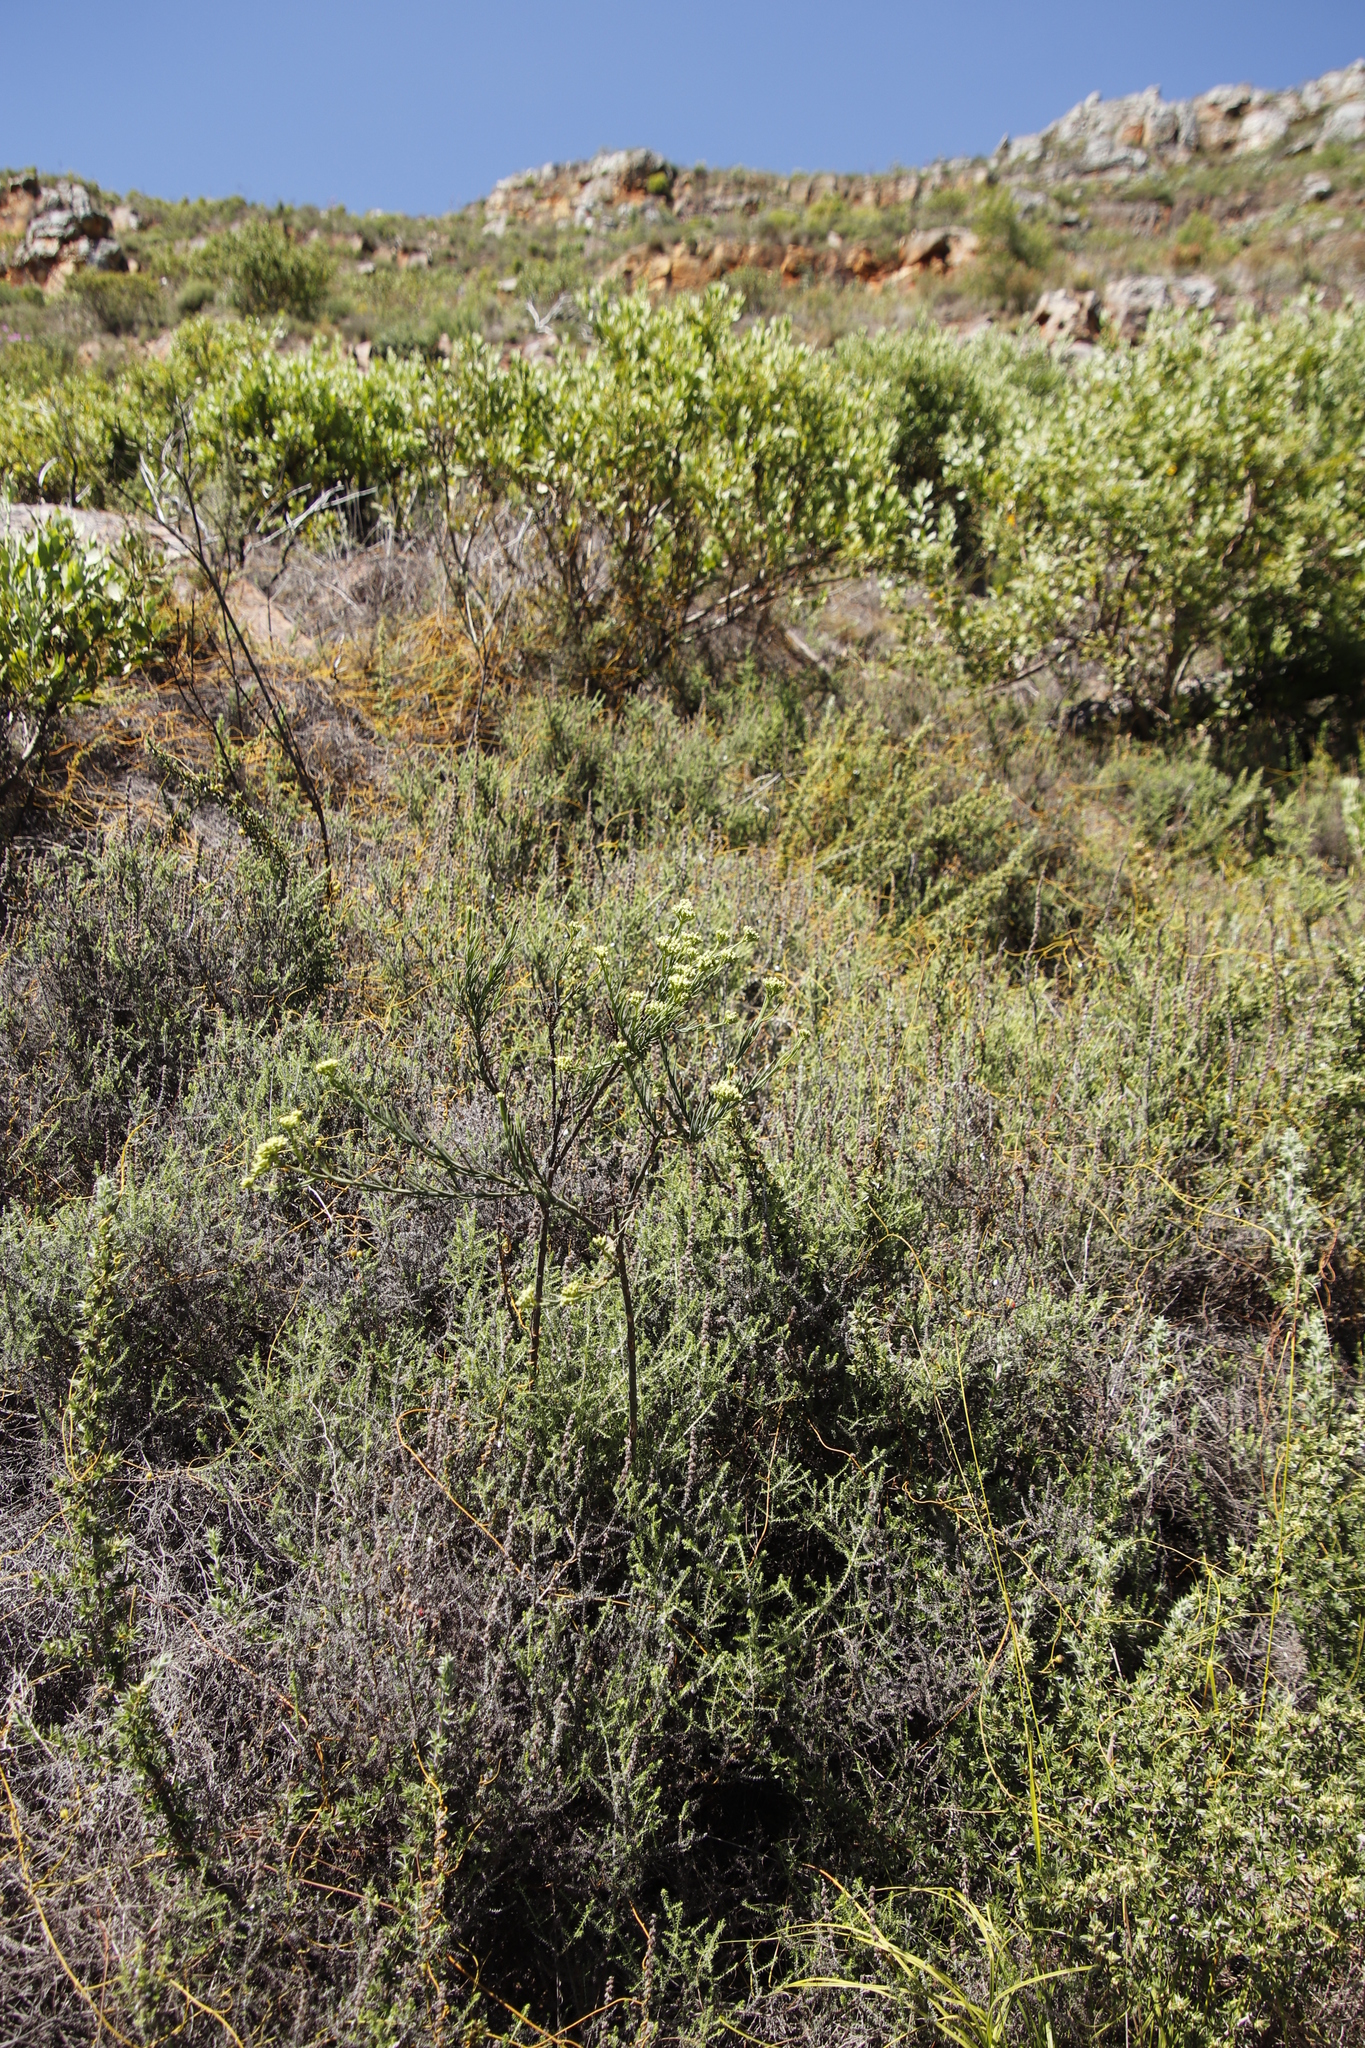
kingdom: Plantae
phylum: Tracheophyta
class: Magnoliopsida
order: Santalales
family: Thesiaceae
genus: Thesium
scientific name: Thesium strictum
